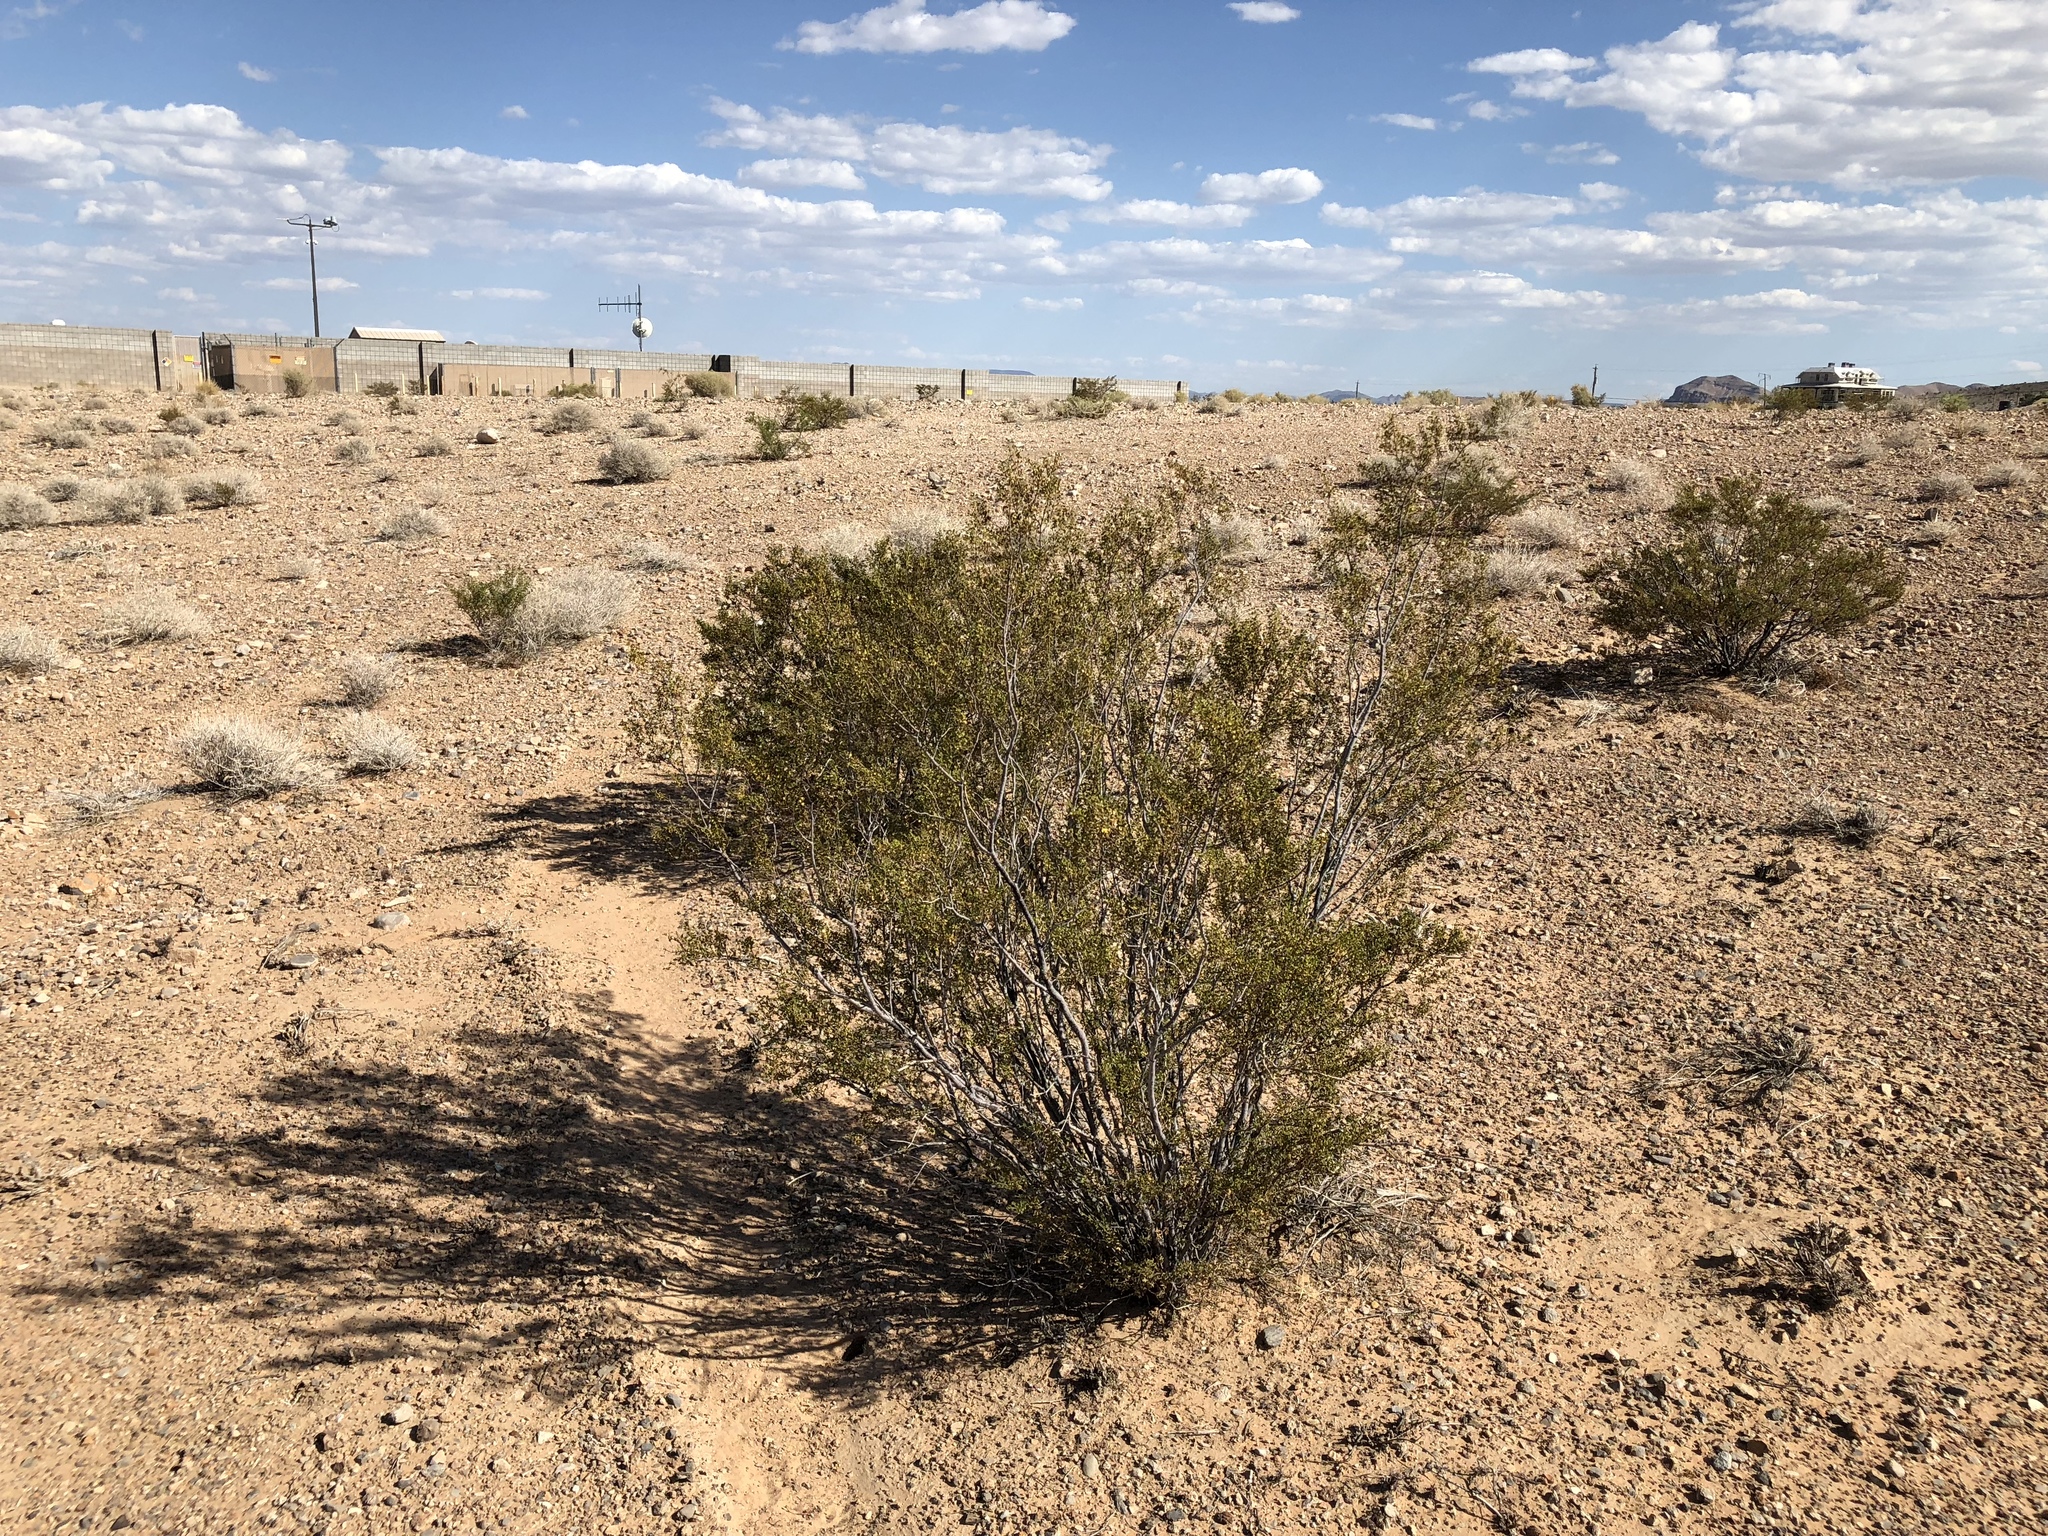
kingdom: Plantae
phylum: Tracheophyta
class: Magnoliopsida
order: Zygophyllales
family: Zygophyllaceae
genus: Larrea
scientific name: Larrea tridentata
